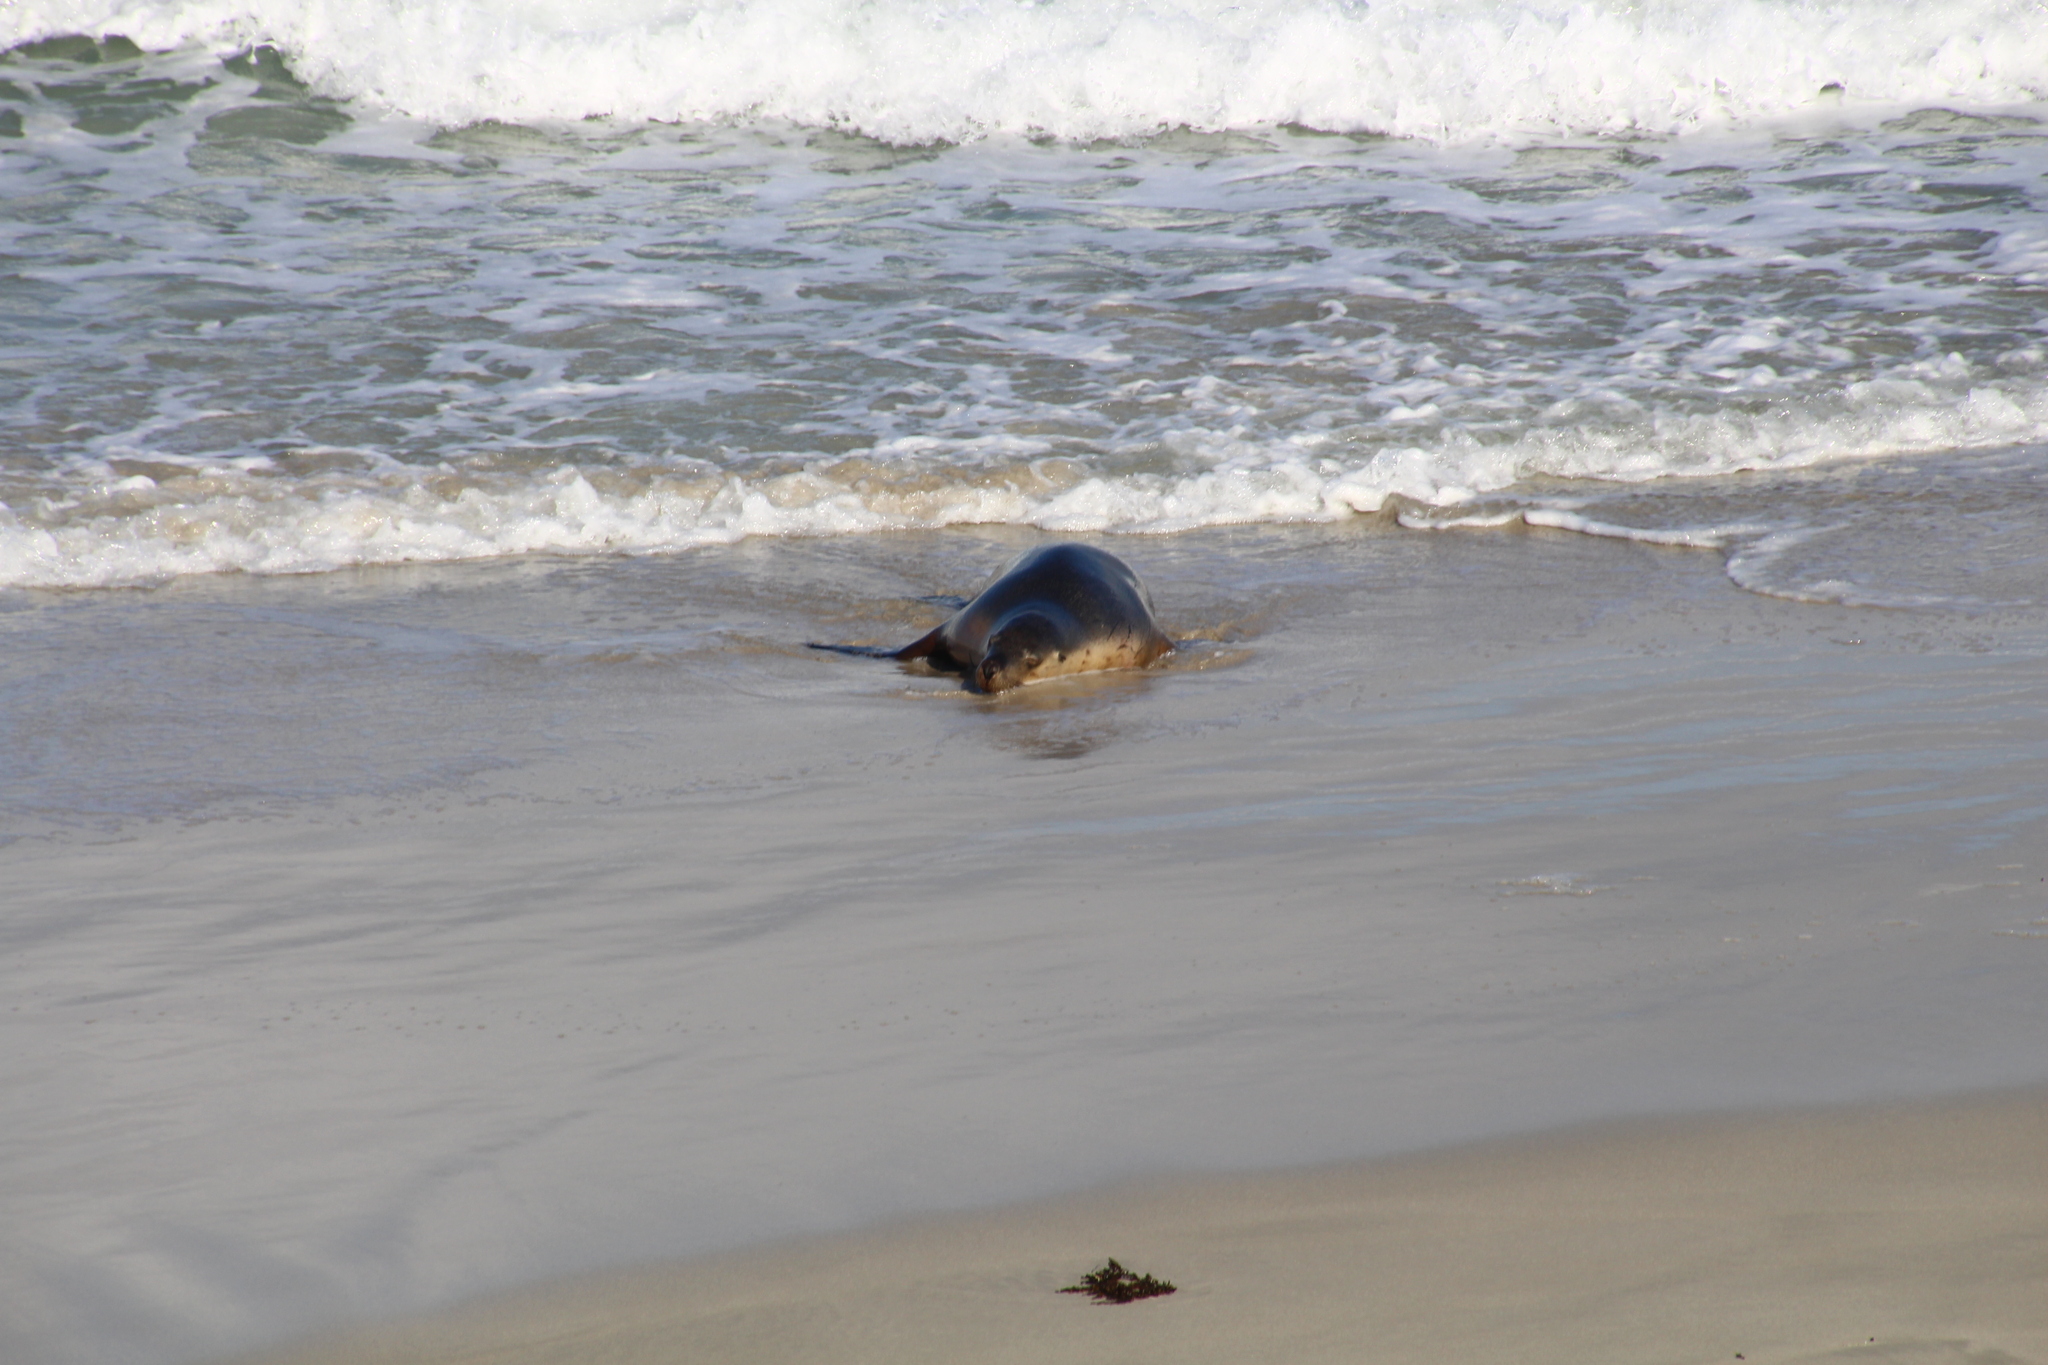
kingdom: Animalia
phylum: Chordata
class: Mammalia
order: Carnivora
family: Otariidae
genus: Neophoca
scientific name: Neophoca cinerea
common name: Australian sea lion
